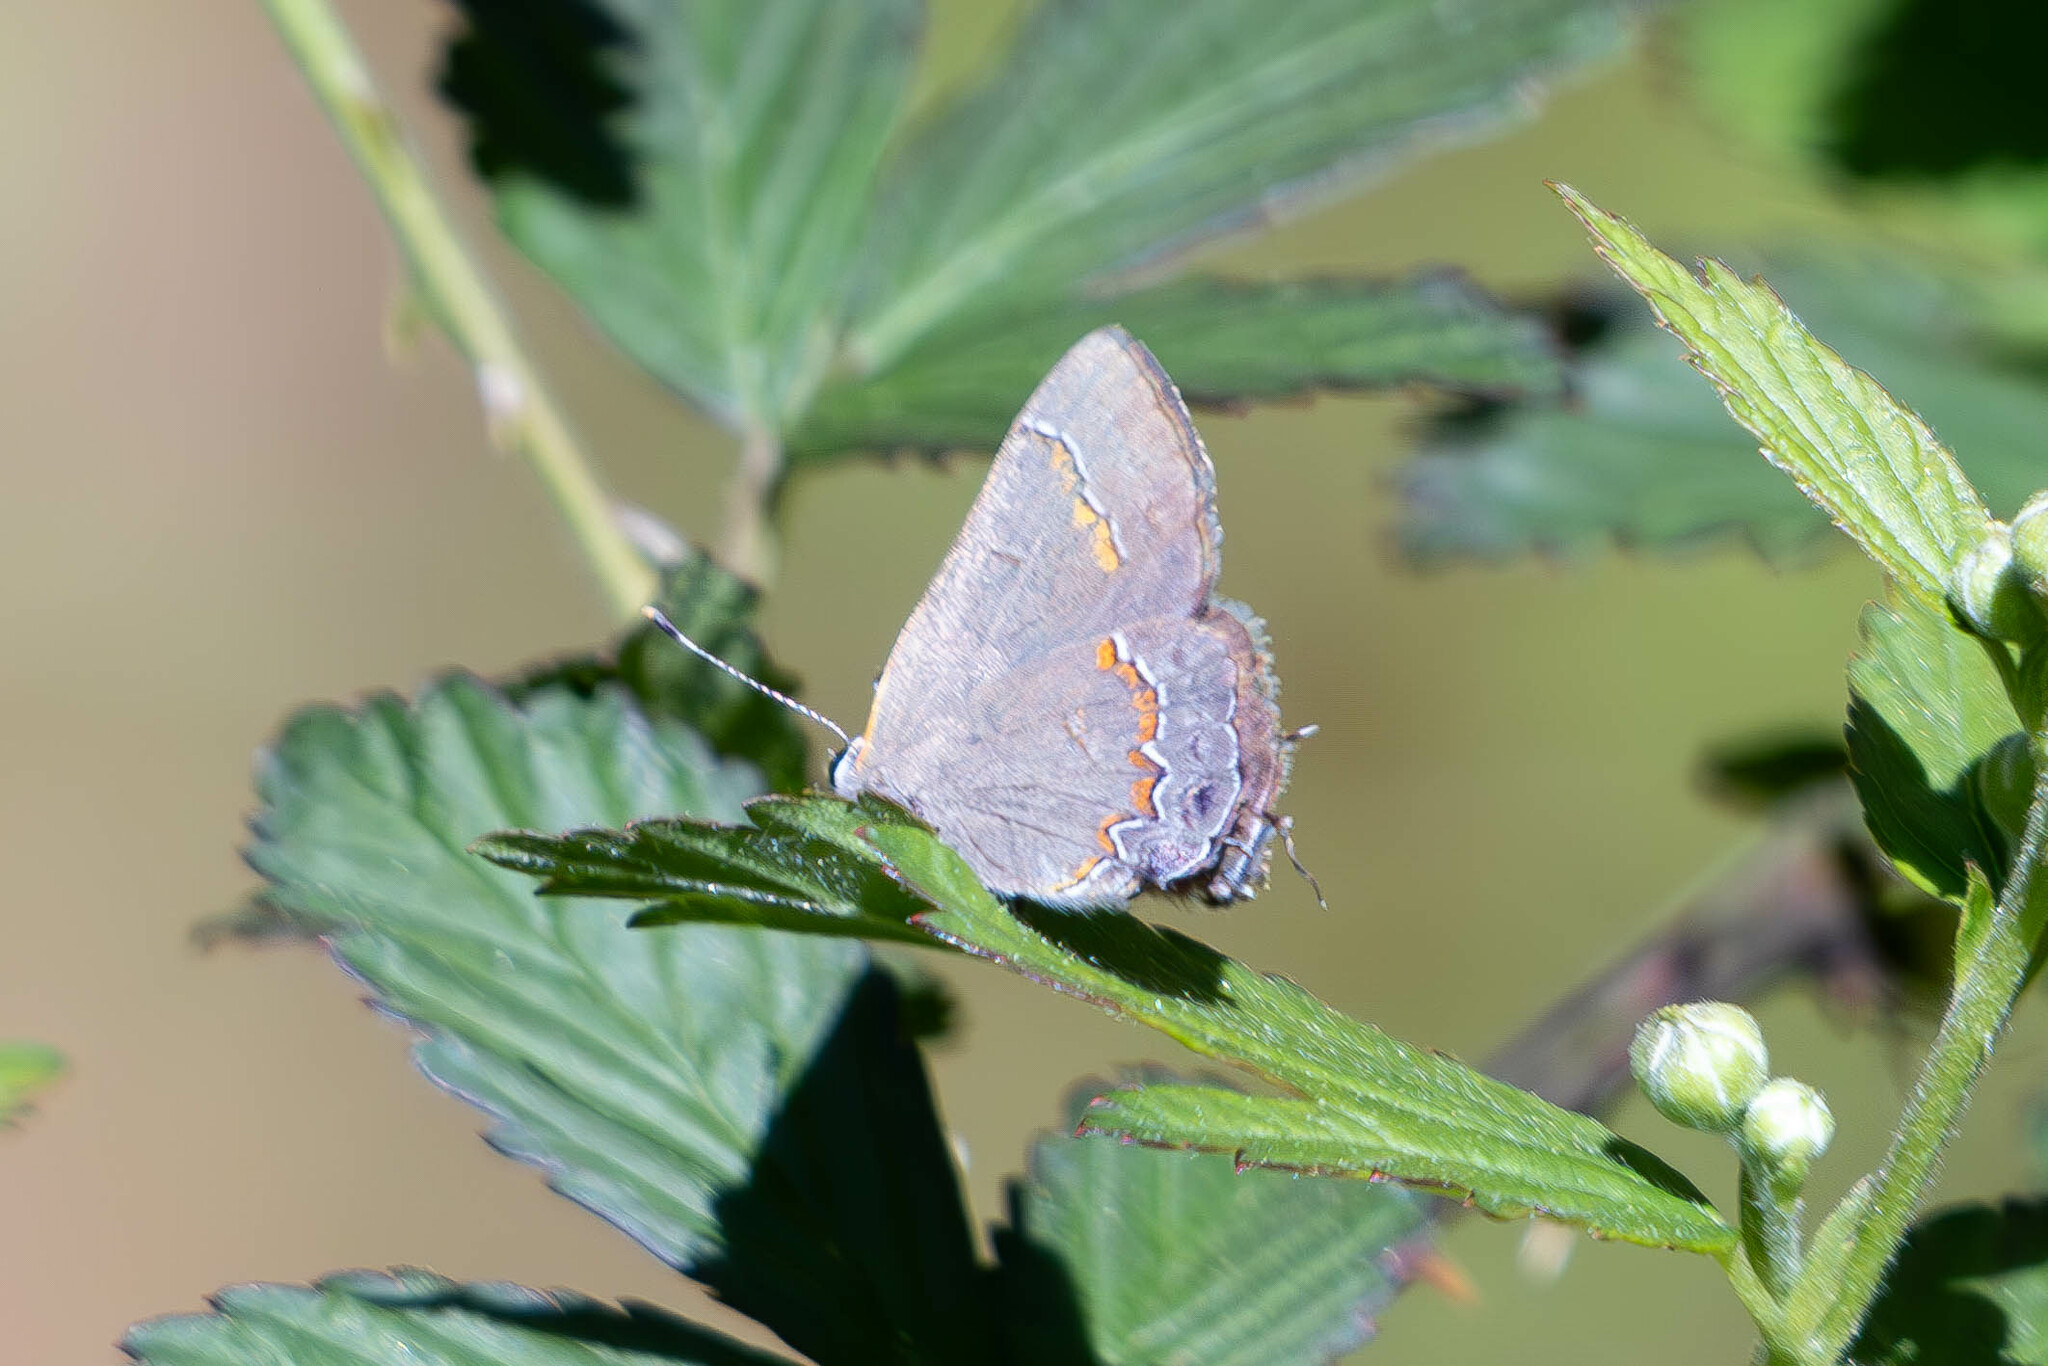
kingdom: Animalia
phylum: Arthropoda
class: Insecta
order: Lepidoptera
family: Lycaenidae
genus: Calycopis
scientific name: Calycopis cecrops
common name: Red-banded hairstreak
